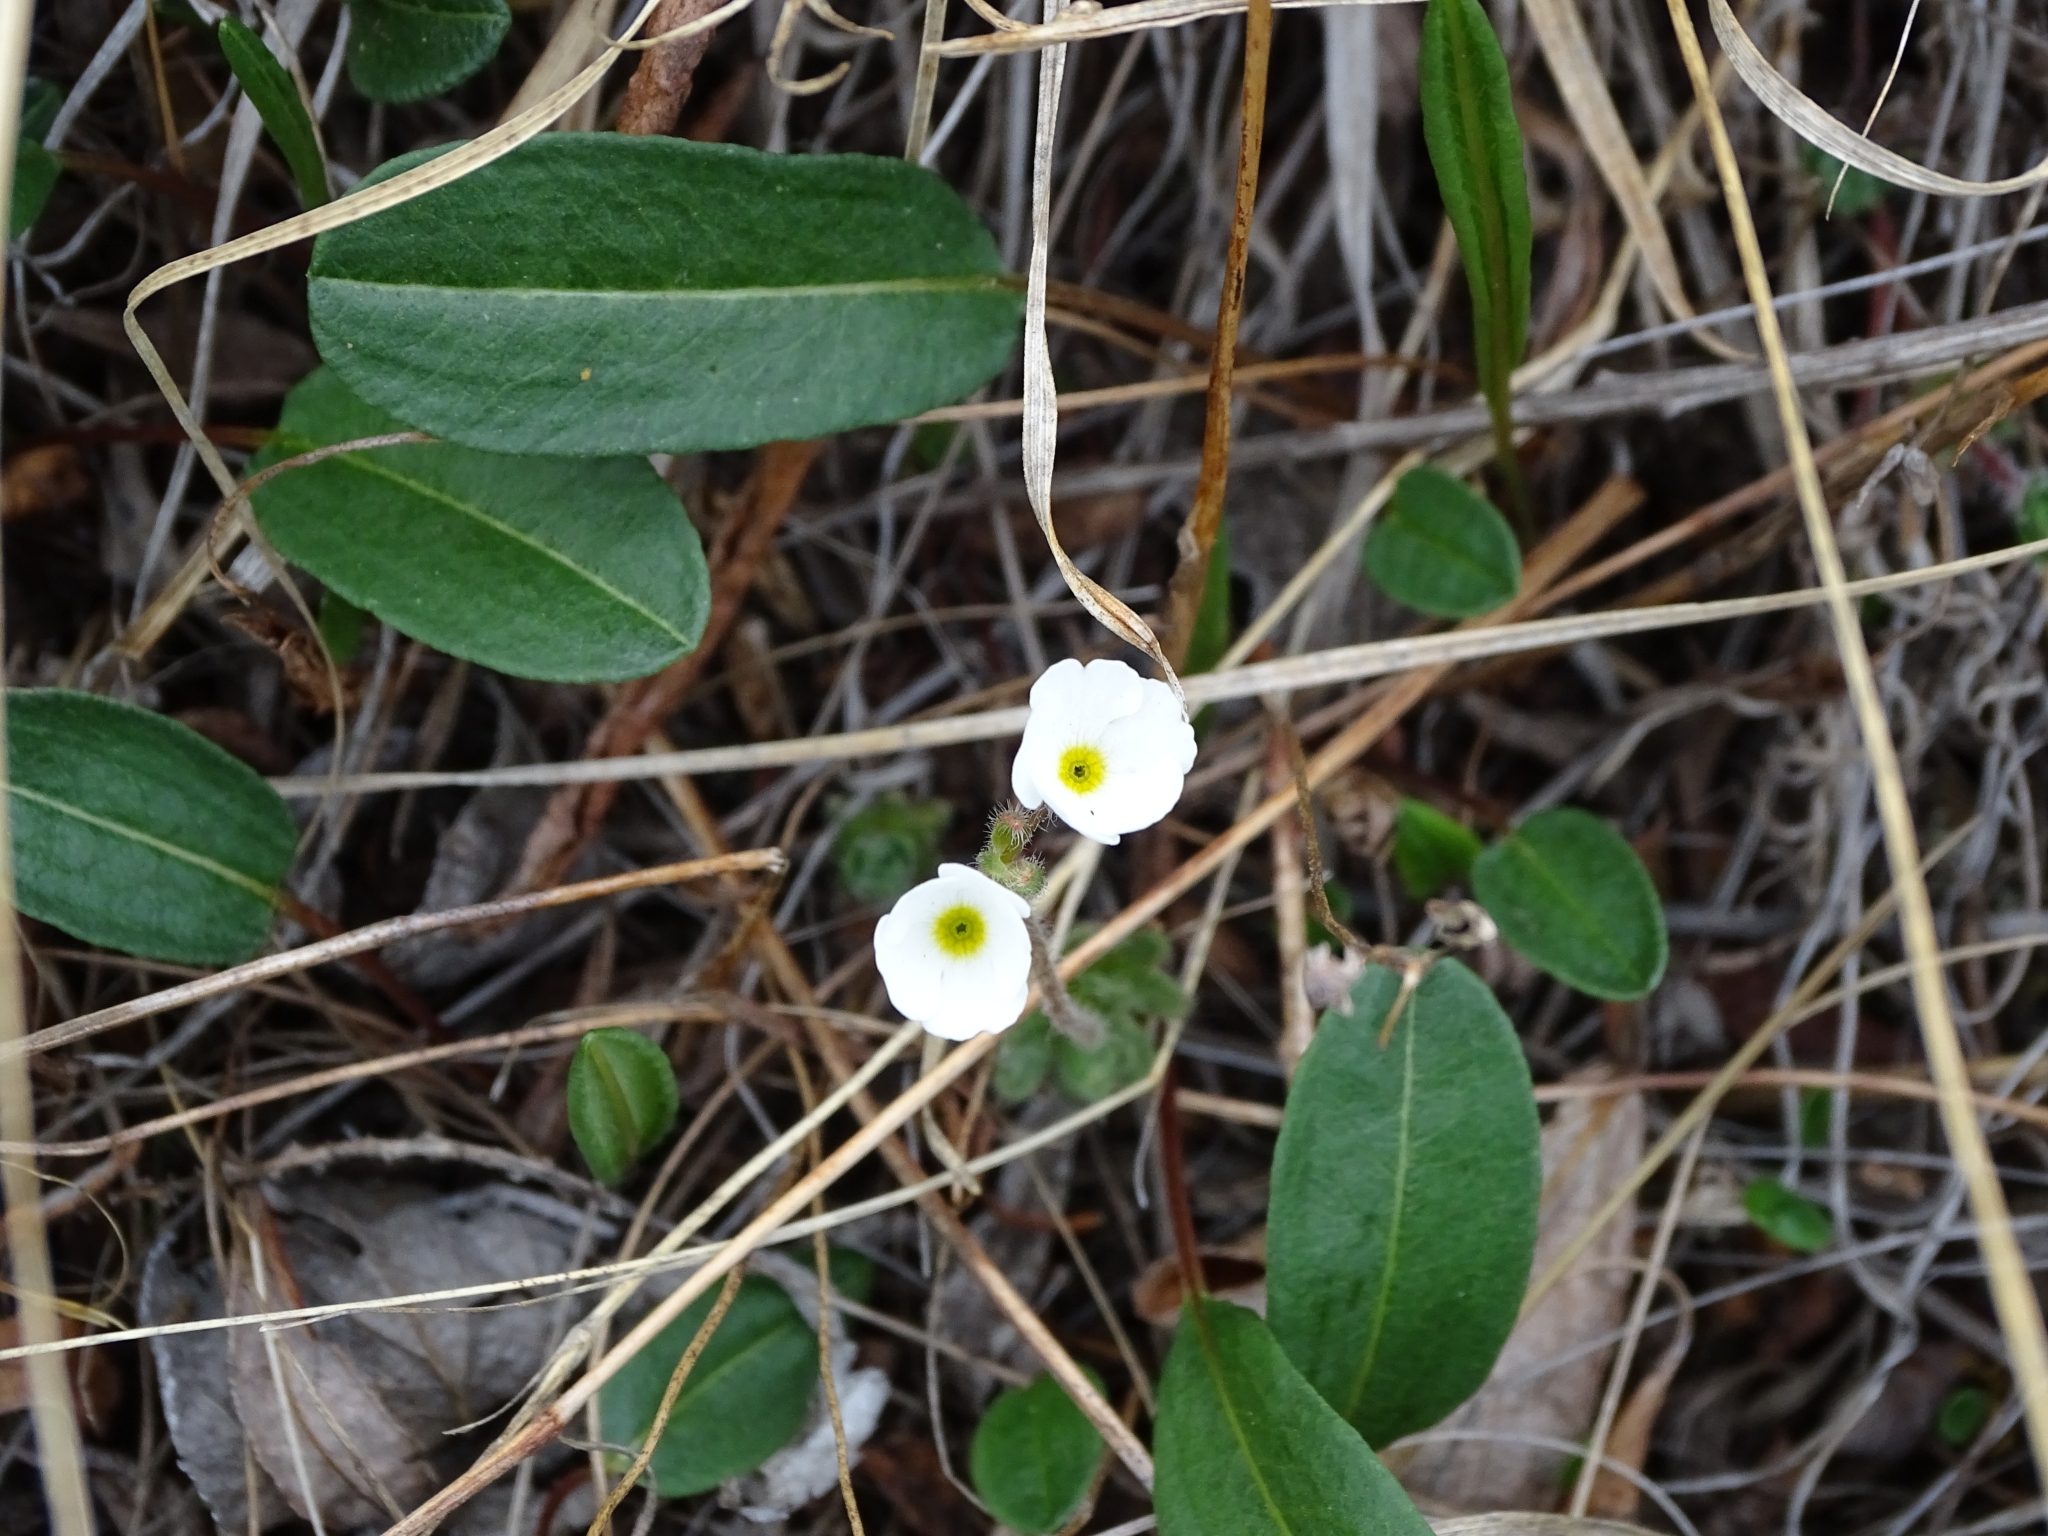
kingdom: Plantae
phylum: Tracheophyta
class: Magnoliopsida
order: Ericales
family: Primulaceae
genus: Androsace
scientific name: Androsace chamaejasme
